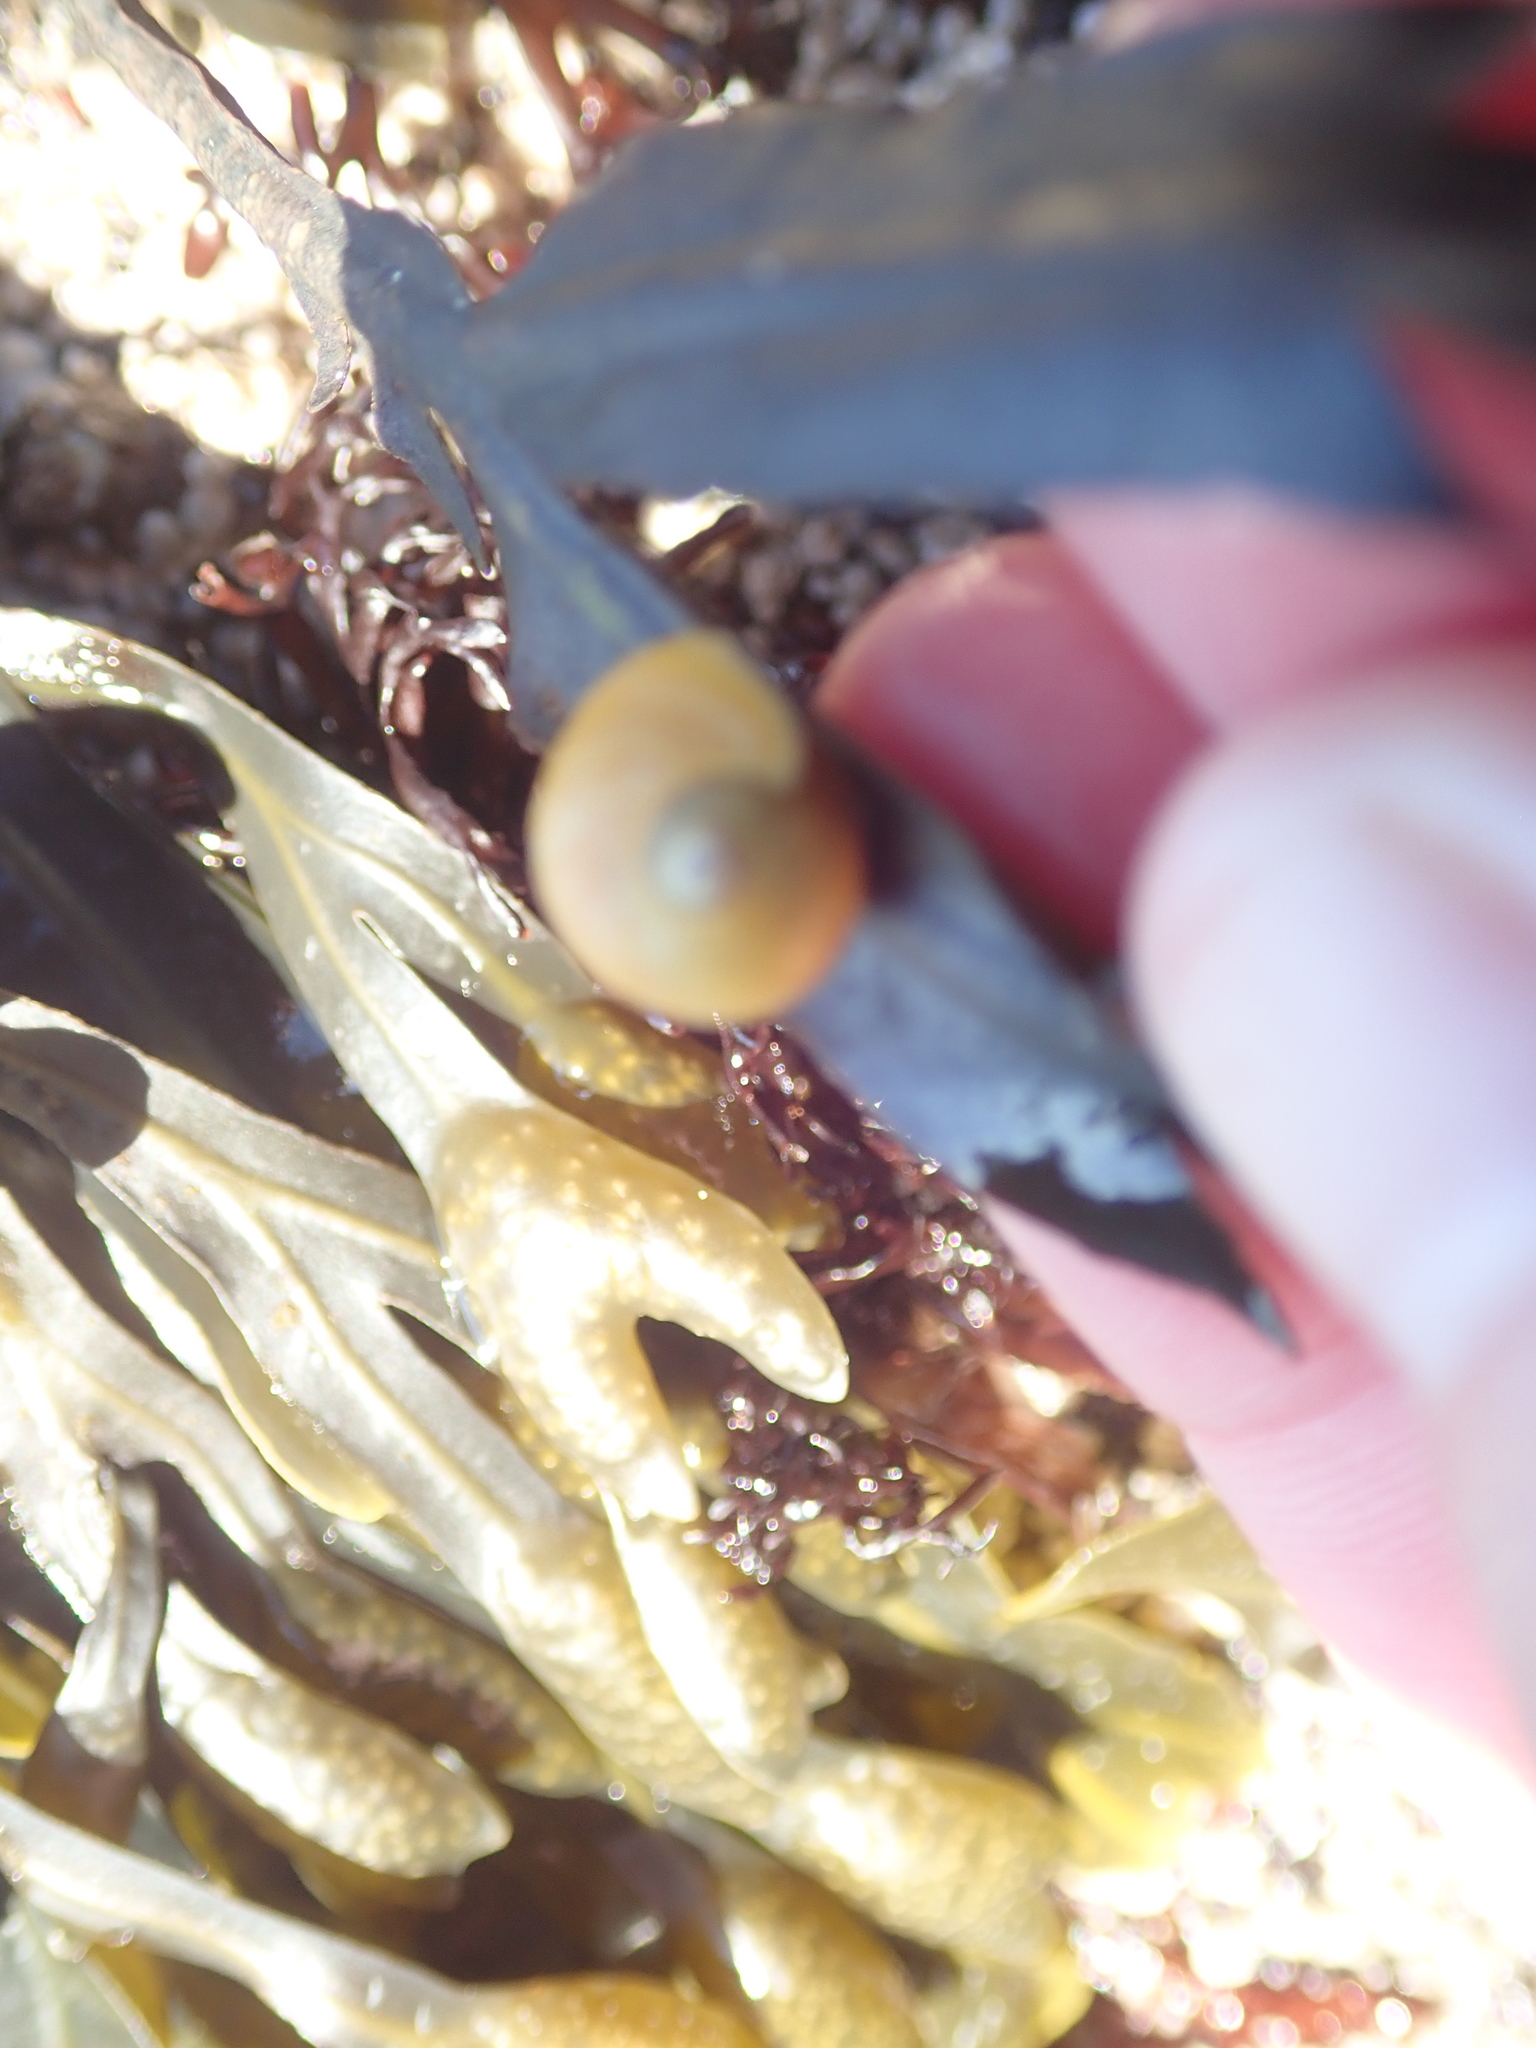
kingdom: Animalia
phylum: Mollusca
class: Gastropoda
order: Littorinimorpha
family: Littorinidae
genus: Littorina
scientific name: Littorina obtusata
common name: Flat periwinkle
